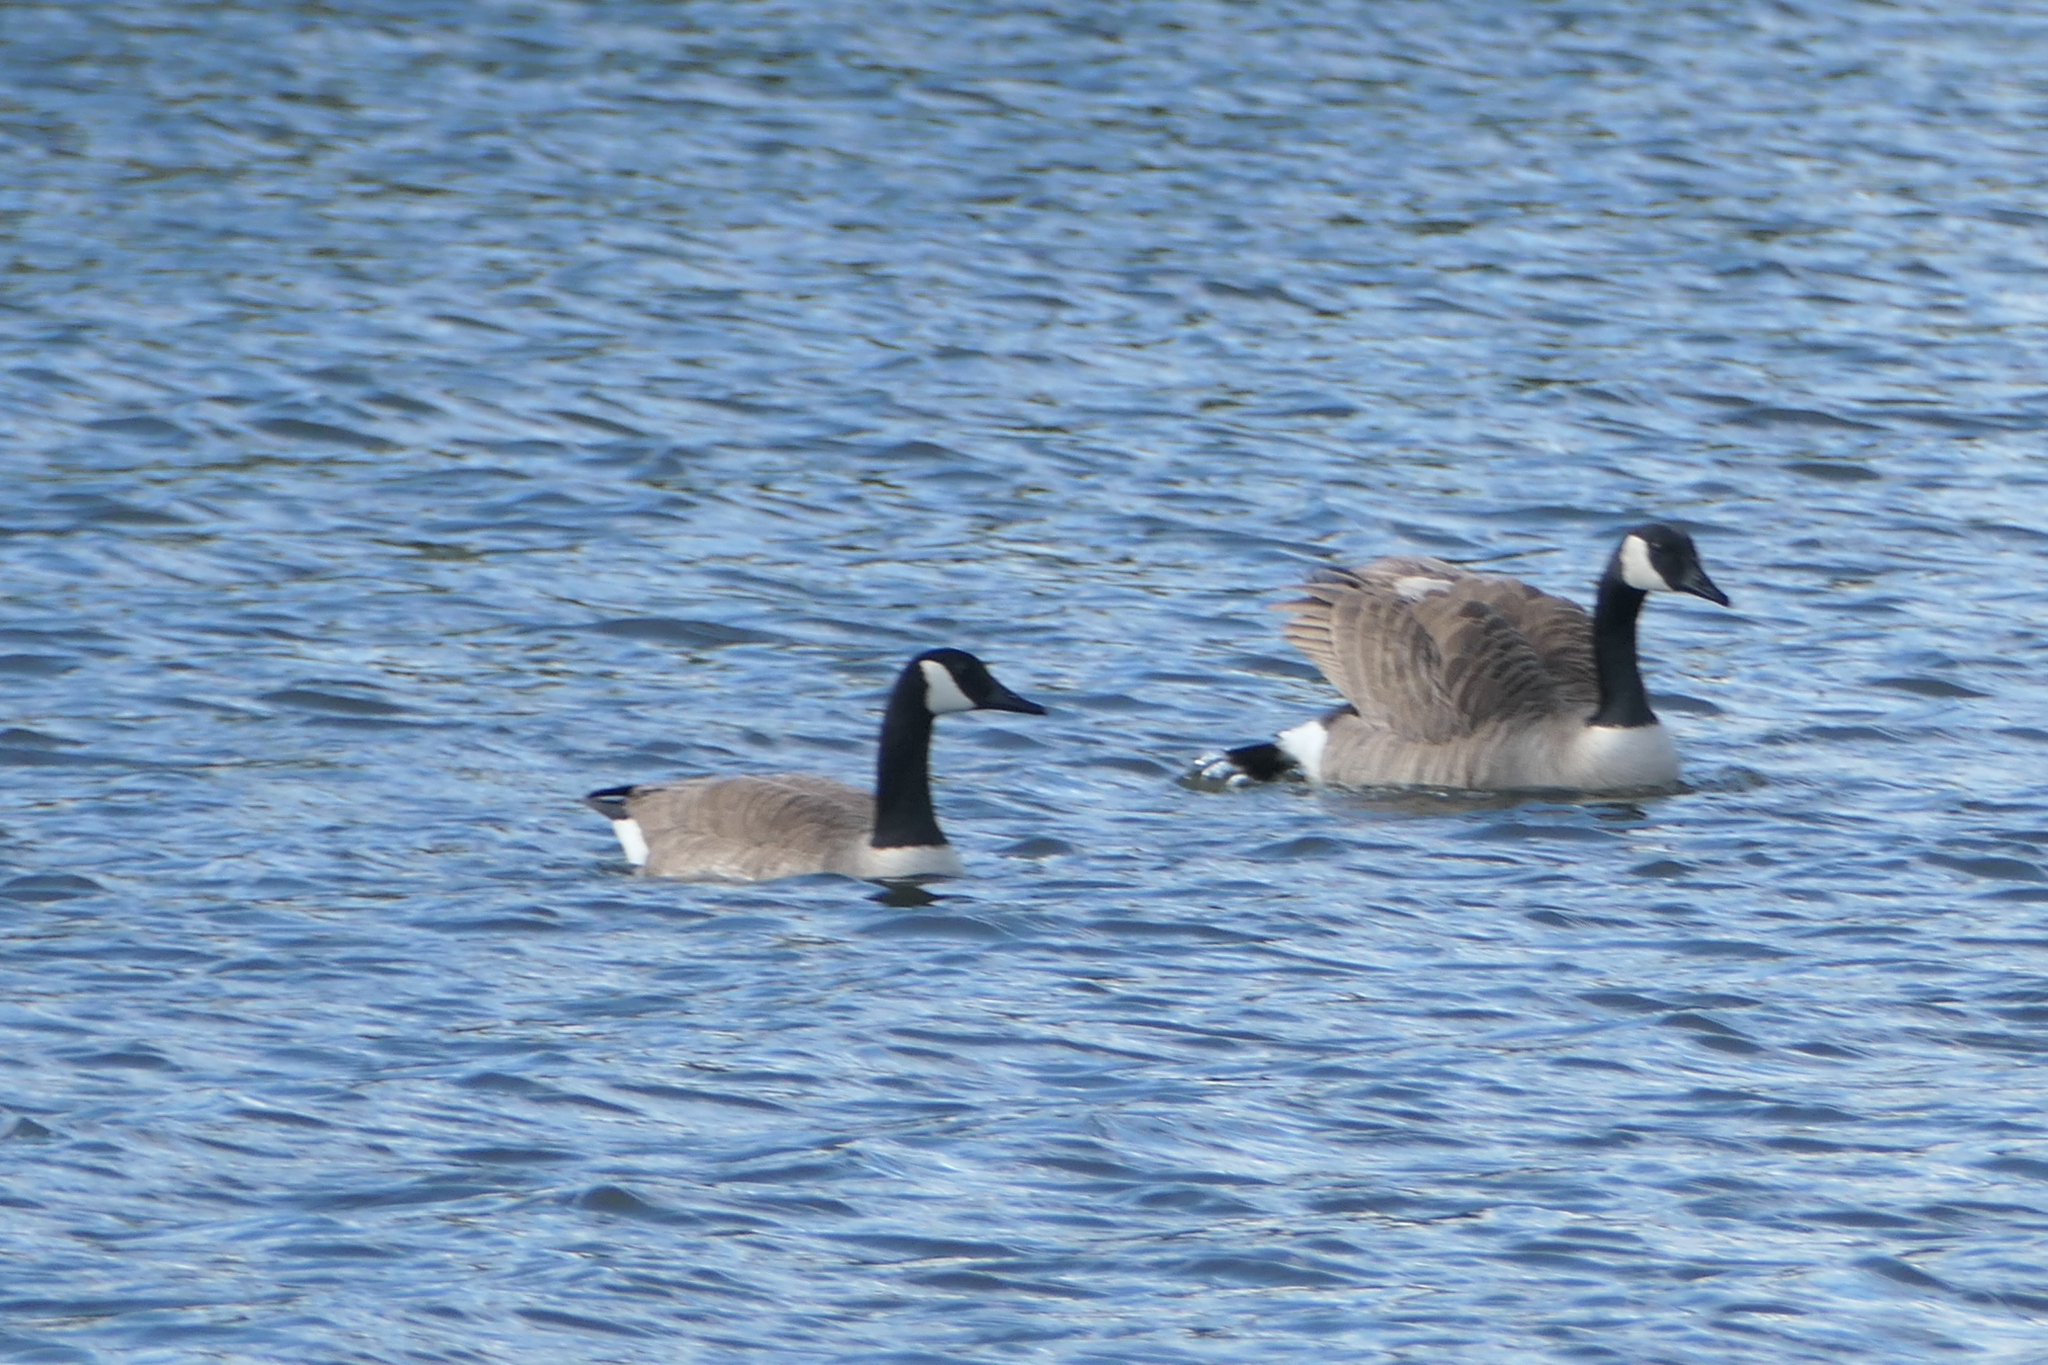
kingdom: Animalia
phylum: Chordata
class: Aves
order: Anseriformes
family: Anatidae
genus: Branta
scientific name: Branta canadensis
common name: Canada goose
